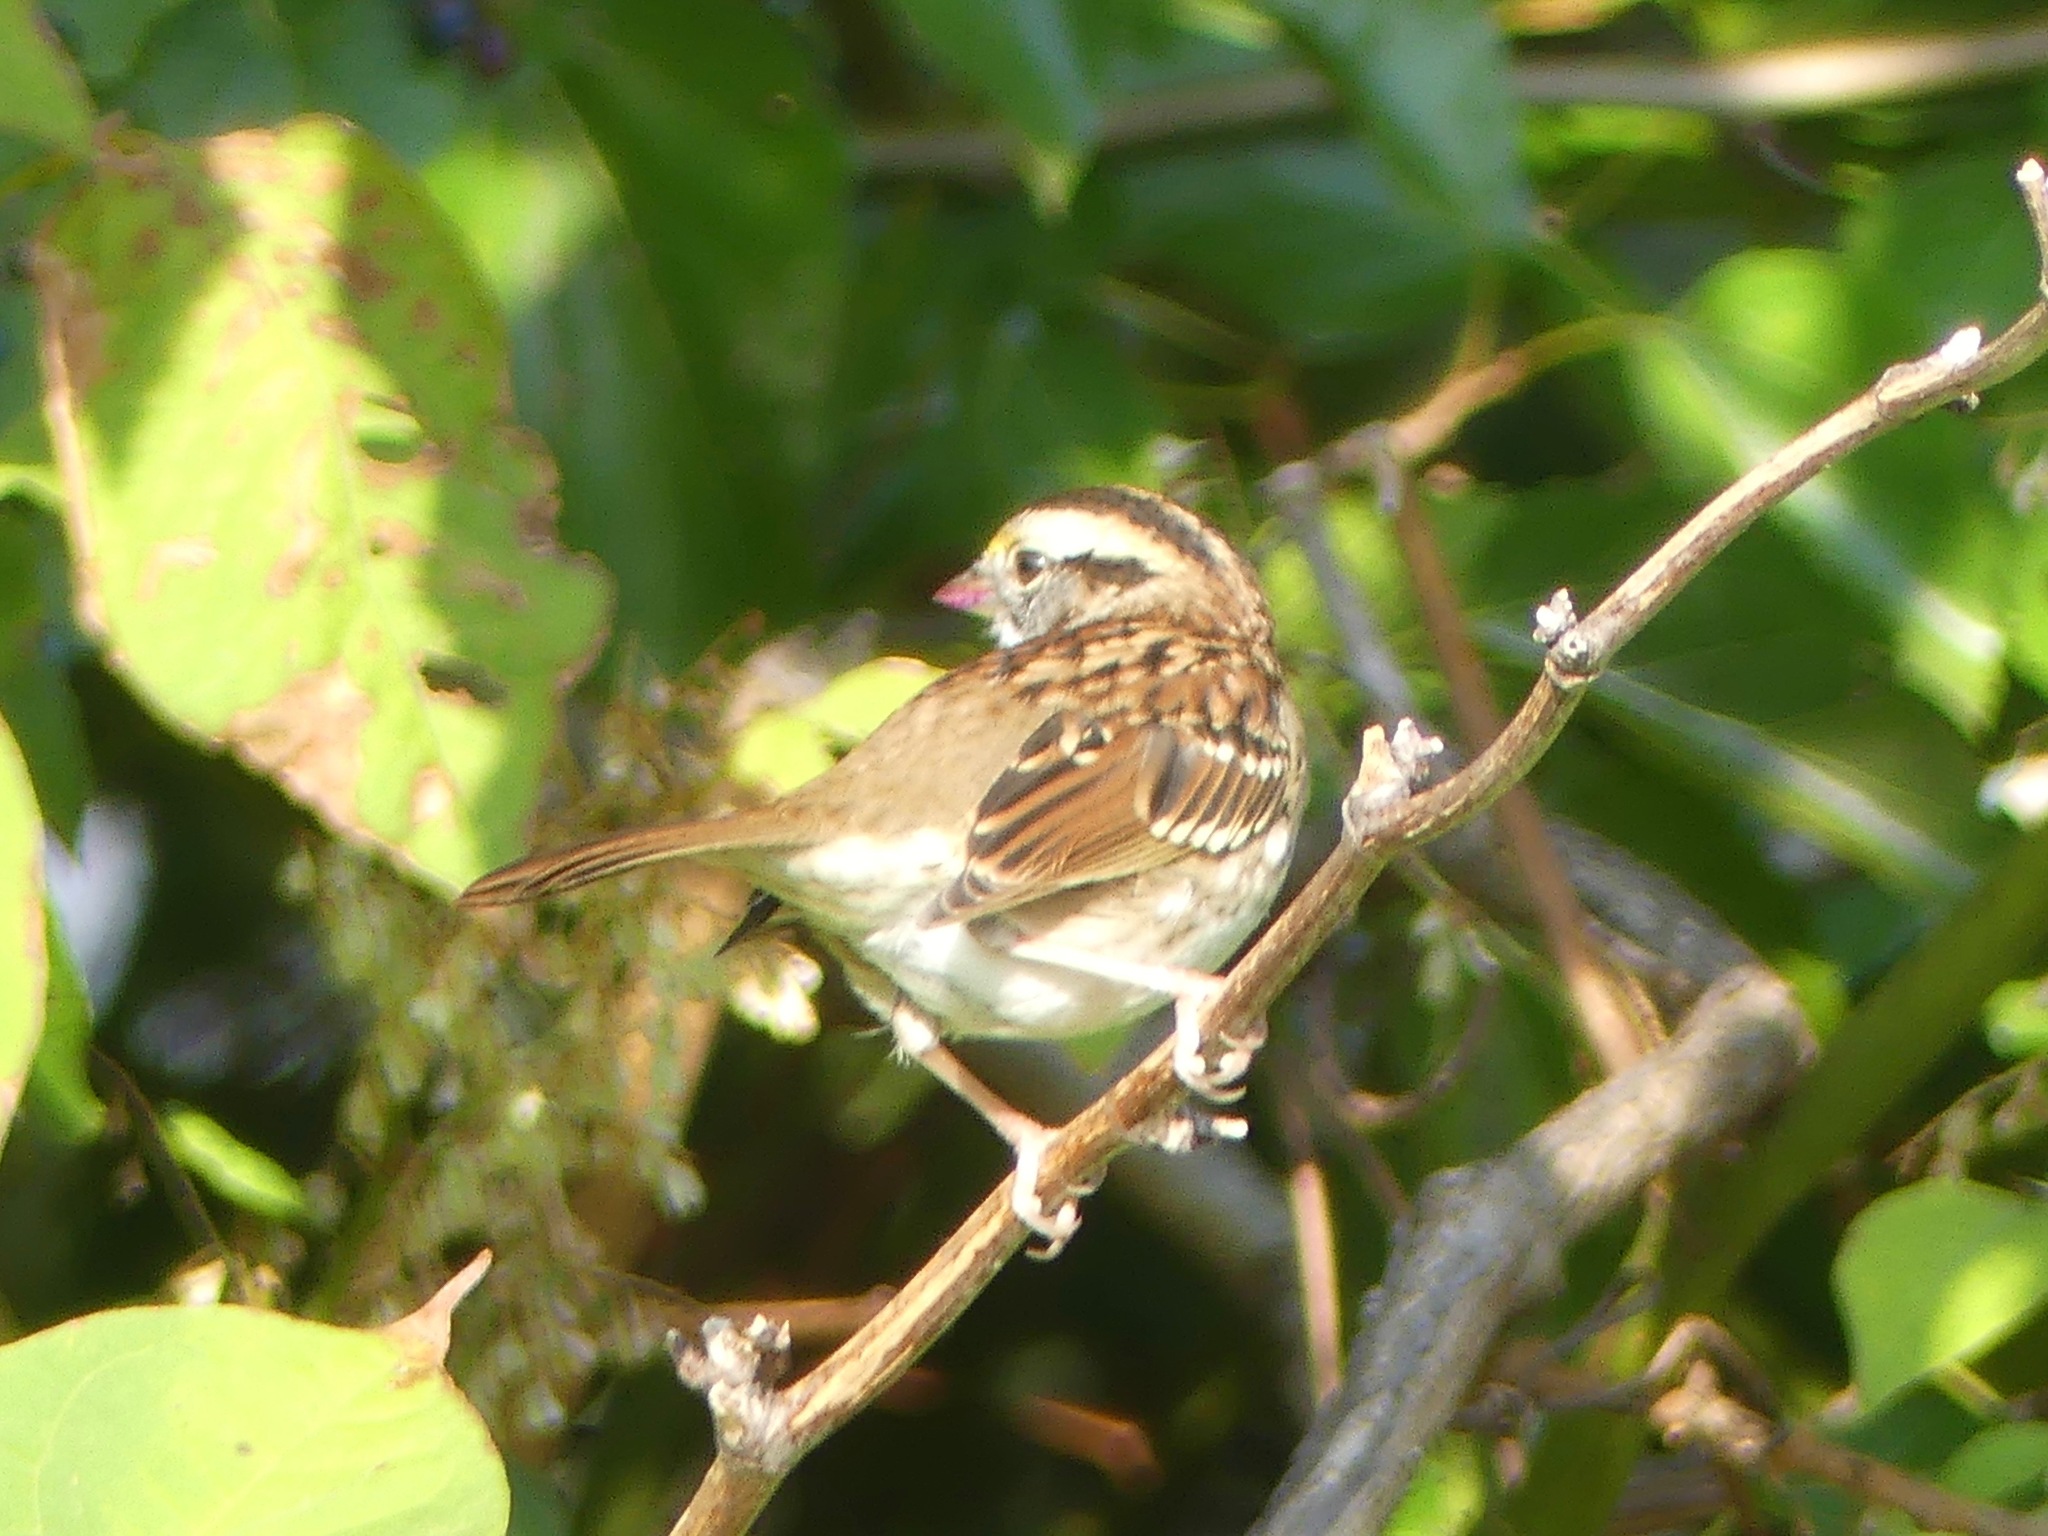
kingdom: Animalia
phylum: Chordata
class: Aves
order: Passeriformes
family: Passerellidae
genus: Zonotrichia
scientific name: Zonotrichia albicollis
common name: White-throated sparrow
